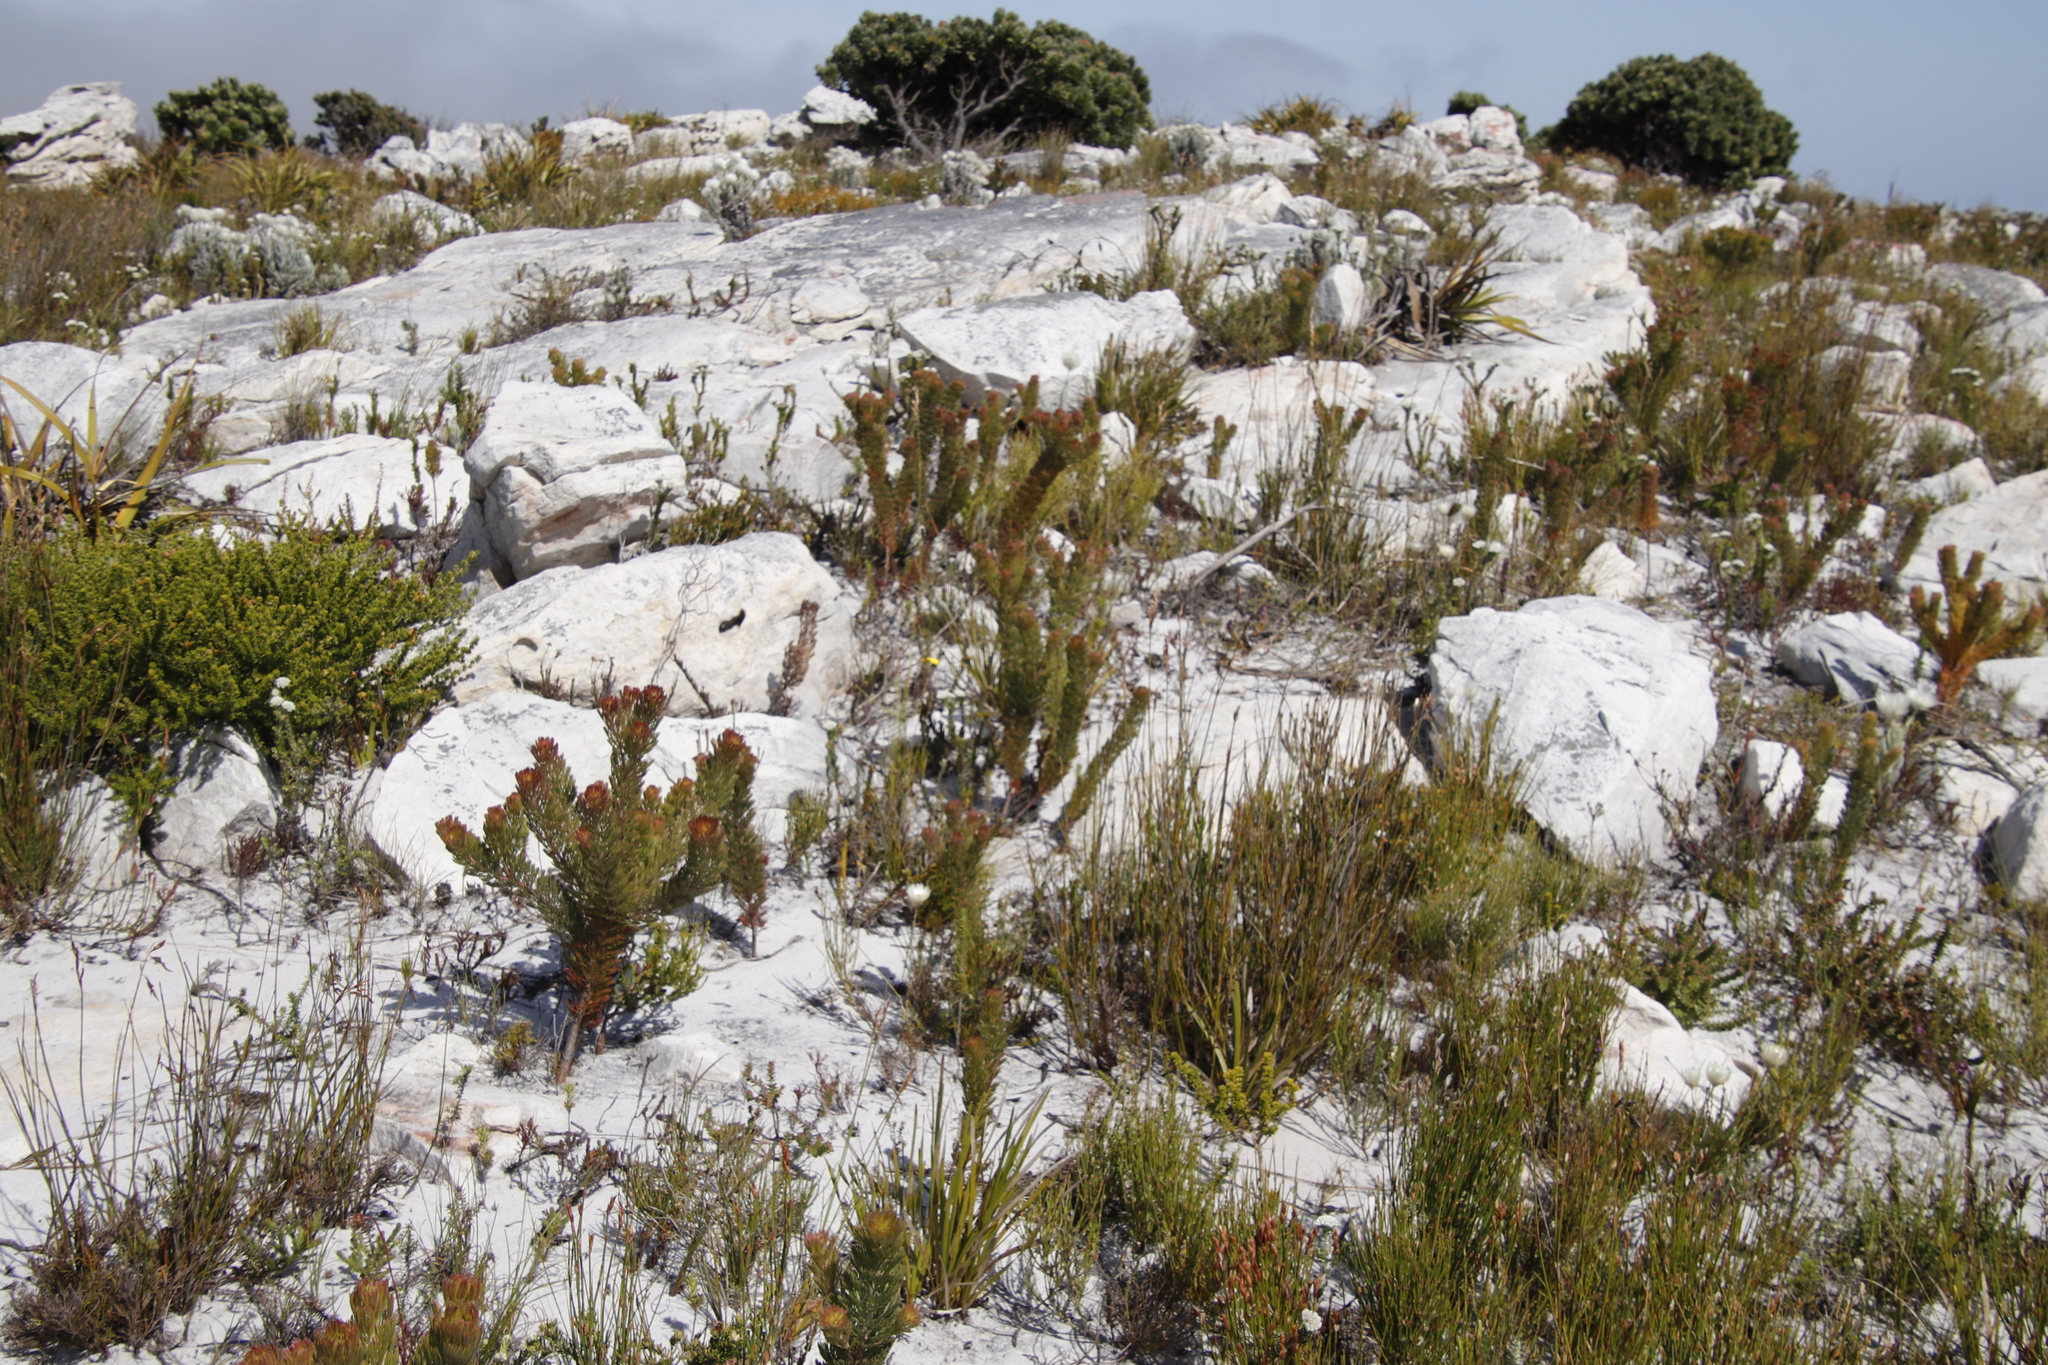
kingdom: Plantae
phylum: Tracheophyta
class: Magnoliopsida
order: Proteales
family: Proteaceae
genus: Serruria
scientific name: Serruria villosa
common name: Golden spiderhead
